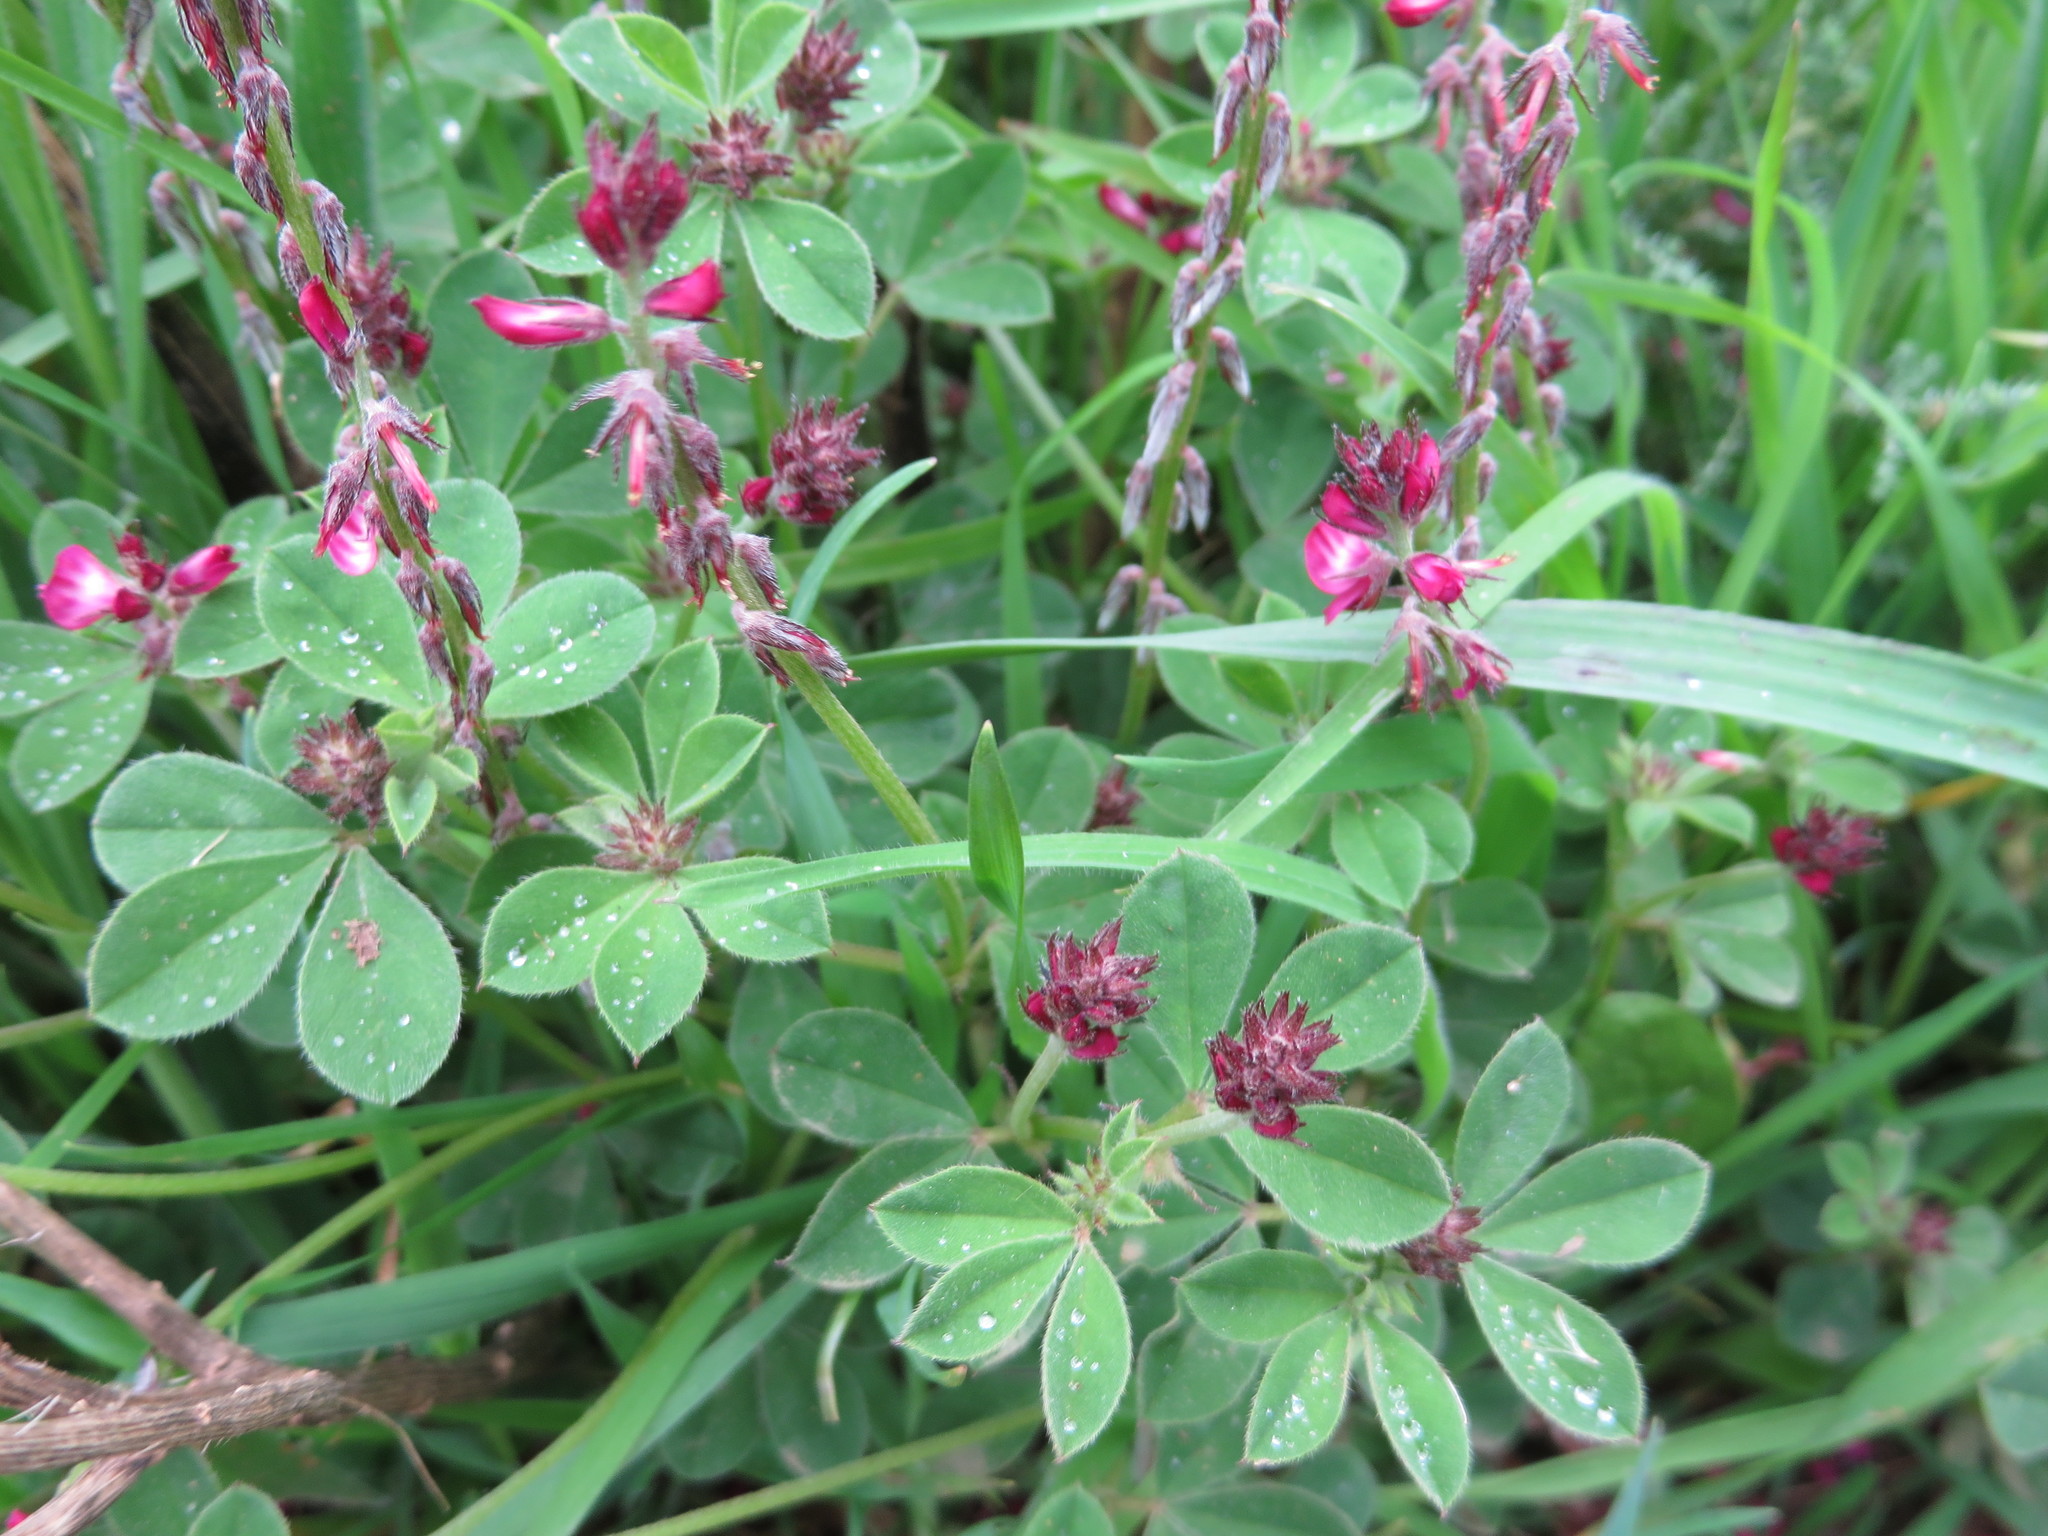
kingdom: Plantae
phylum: Tracheophyta
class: Magnoliopsida
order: Fabales
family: Fabaceae
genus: Indigofera
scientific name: Indigofera incana
